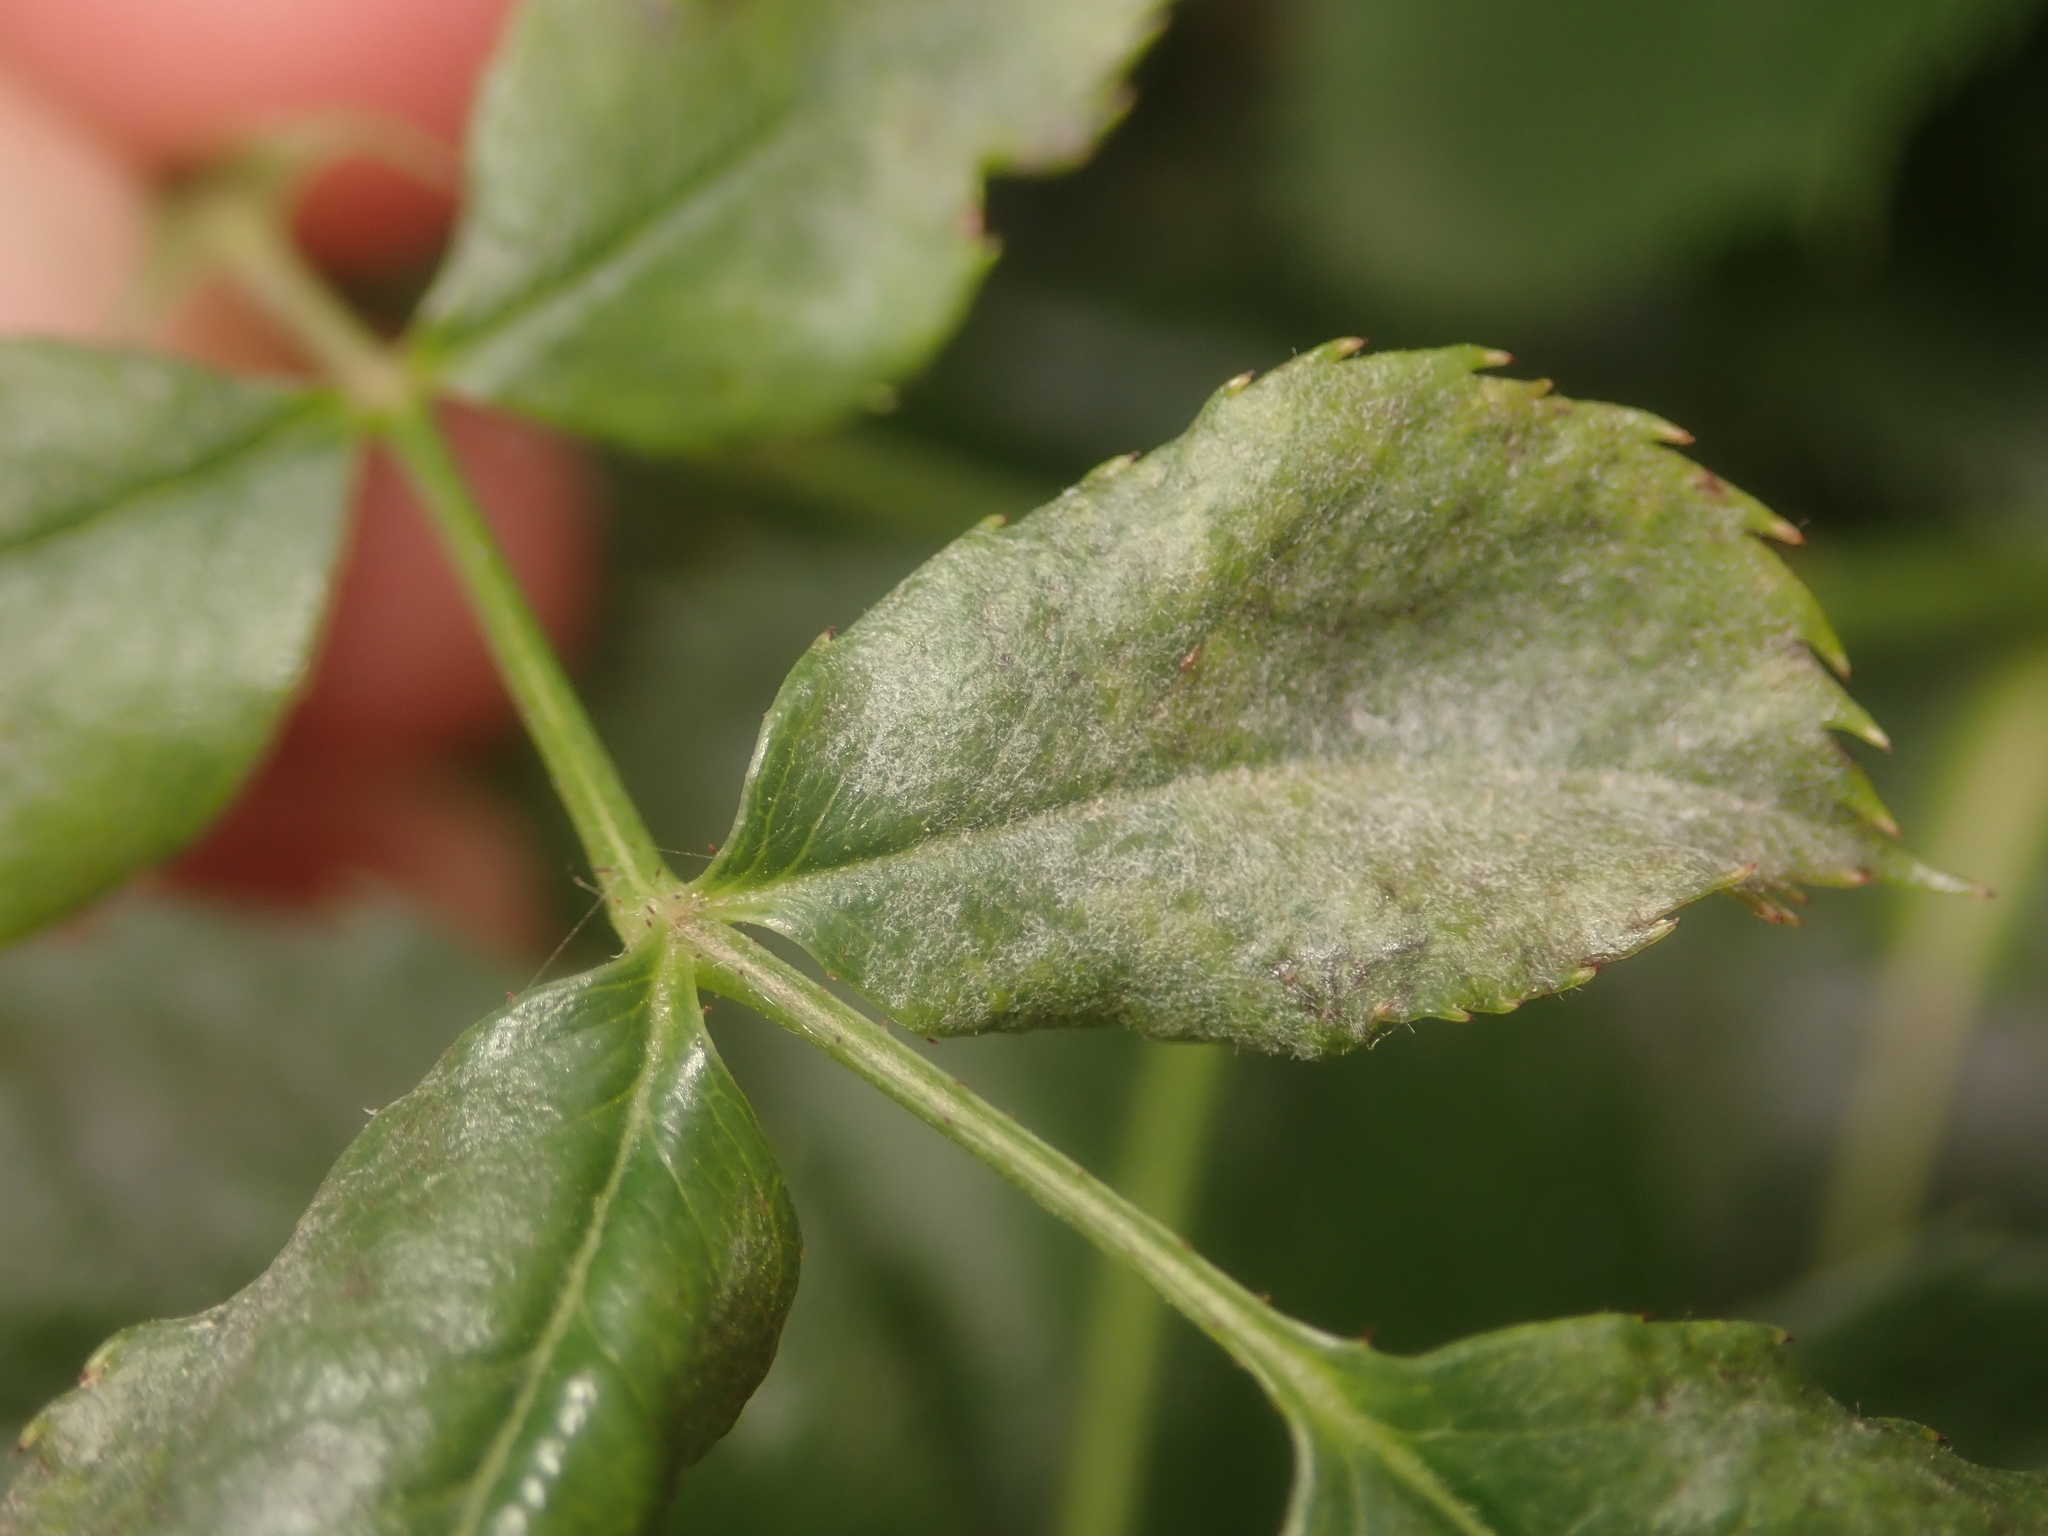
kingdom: Fungi
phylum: Ascomycota
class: Leotiomycetes
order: Helotiales
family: Erysiphaceae
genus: Podosphaera
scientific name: Podosphaera pannosa
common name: Rose mildew
